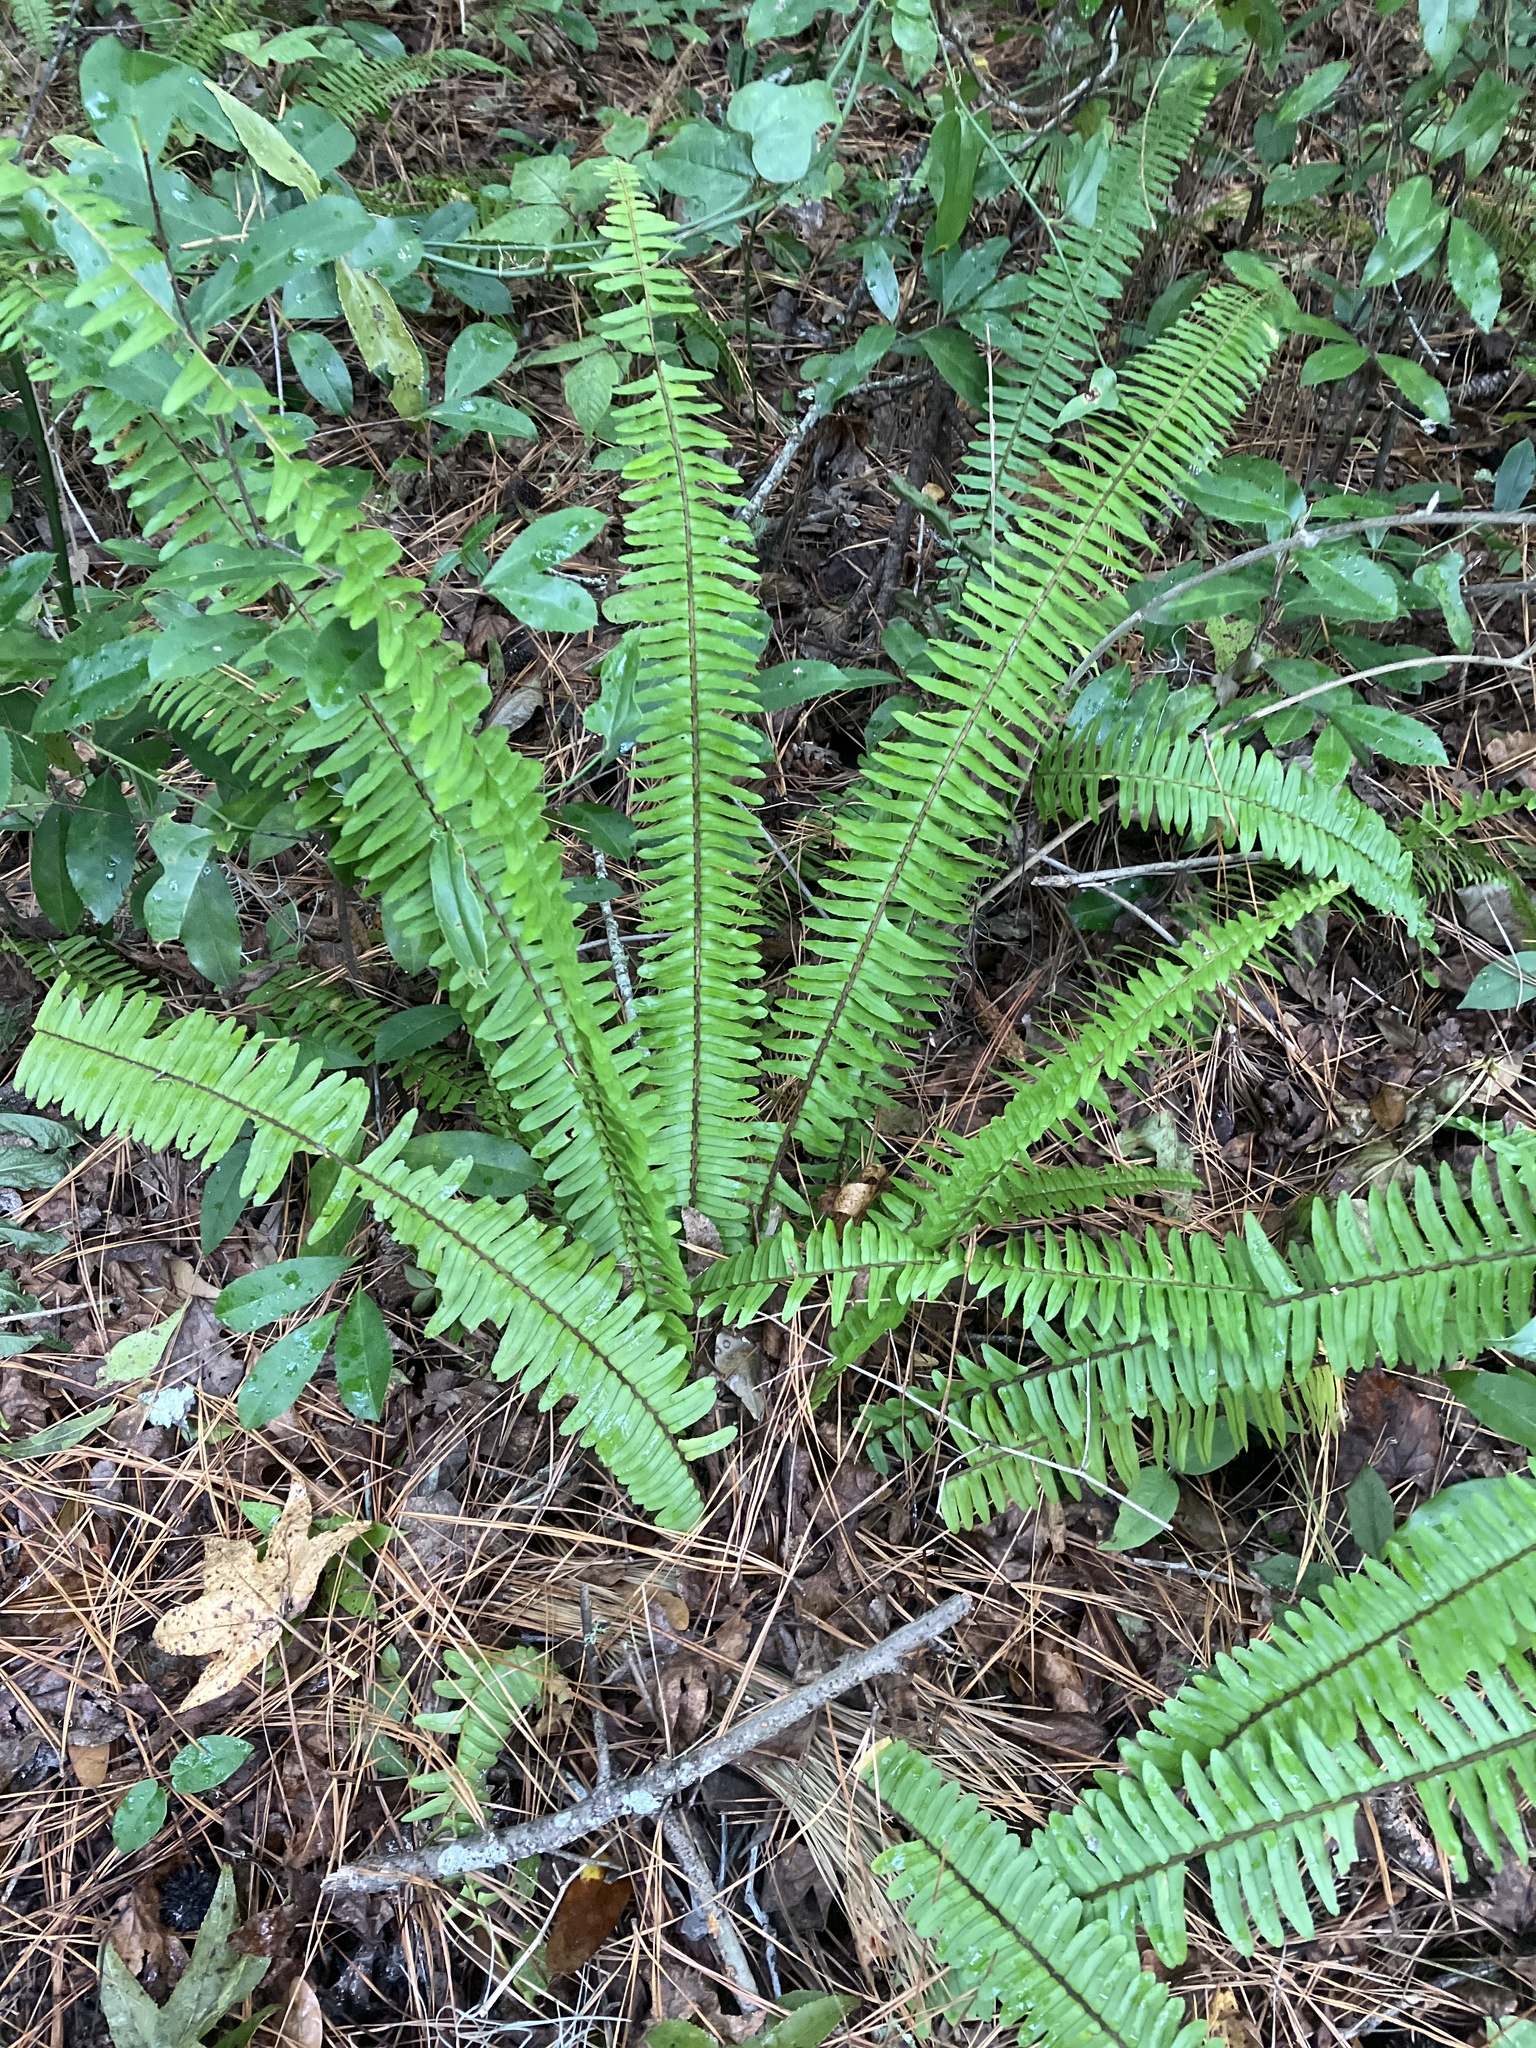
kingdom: Plantae
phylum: Tracheophyta
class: Polypodiopsida
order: Polypodiales
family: Nephrolepidaceae
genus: Nephrolepis
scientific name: Nephrolepis cordifolia
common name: Narrow swordfern
